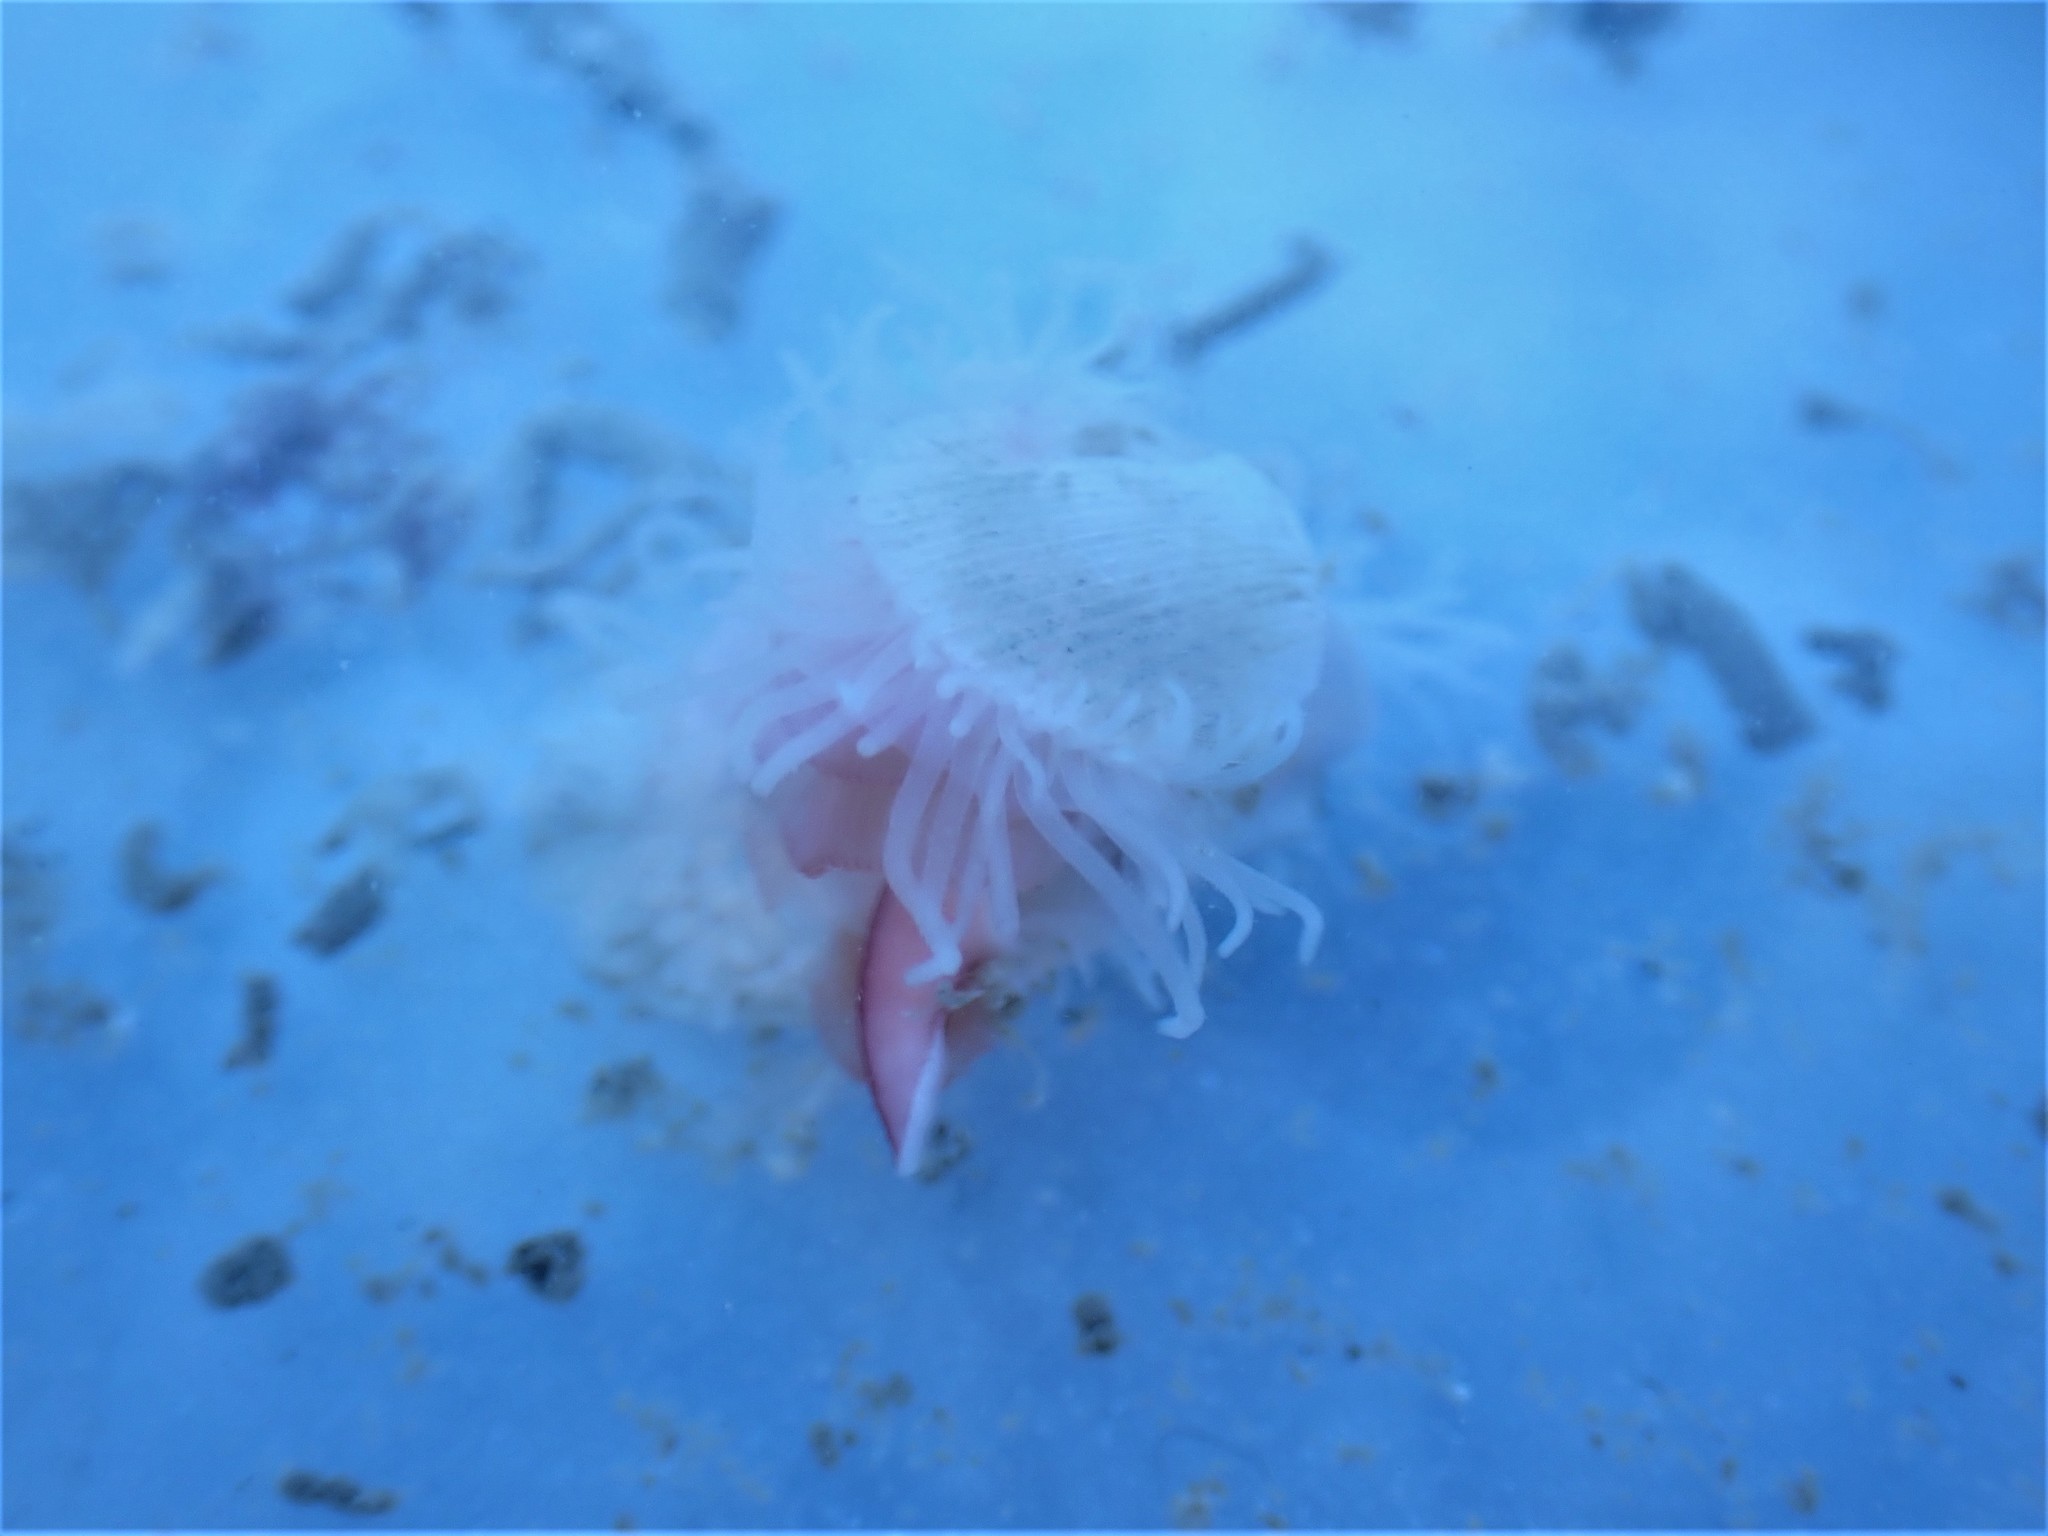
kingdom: Animalia
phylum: Mollusca
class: Bivalvia
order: Limida
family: Limidae
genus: Limaria
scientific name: Limaria orientalis
